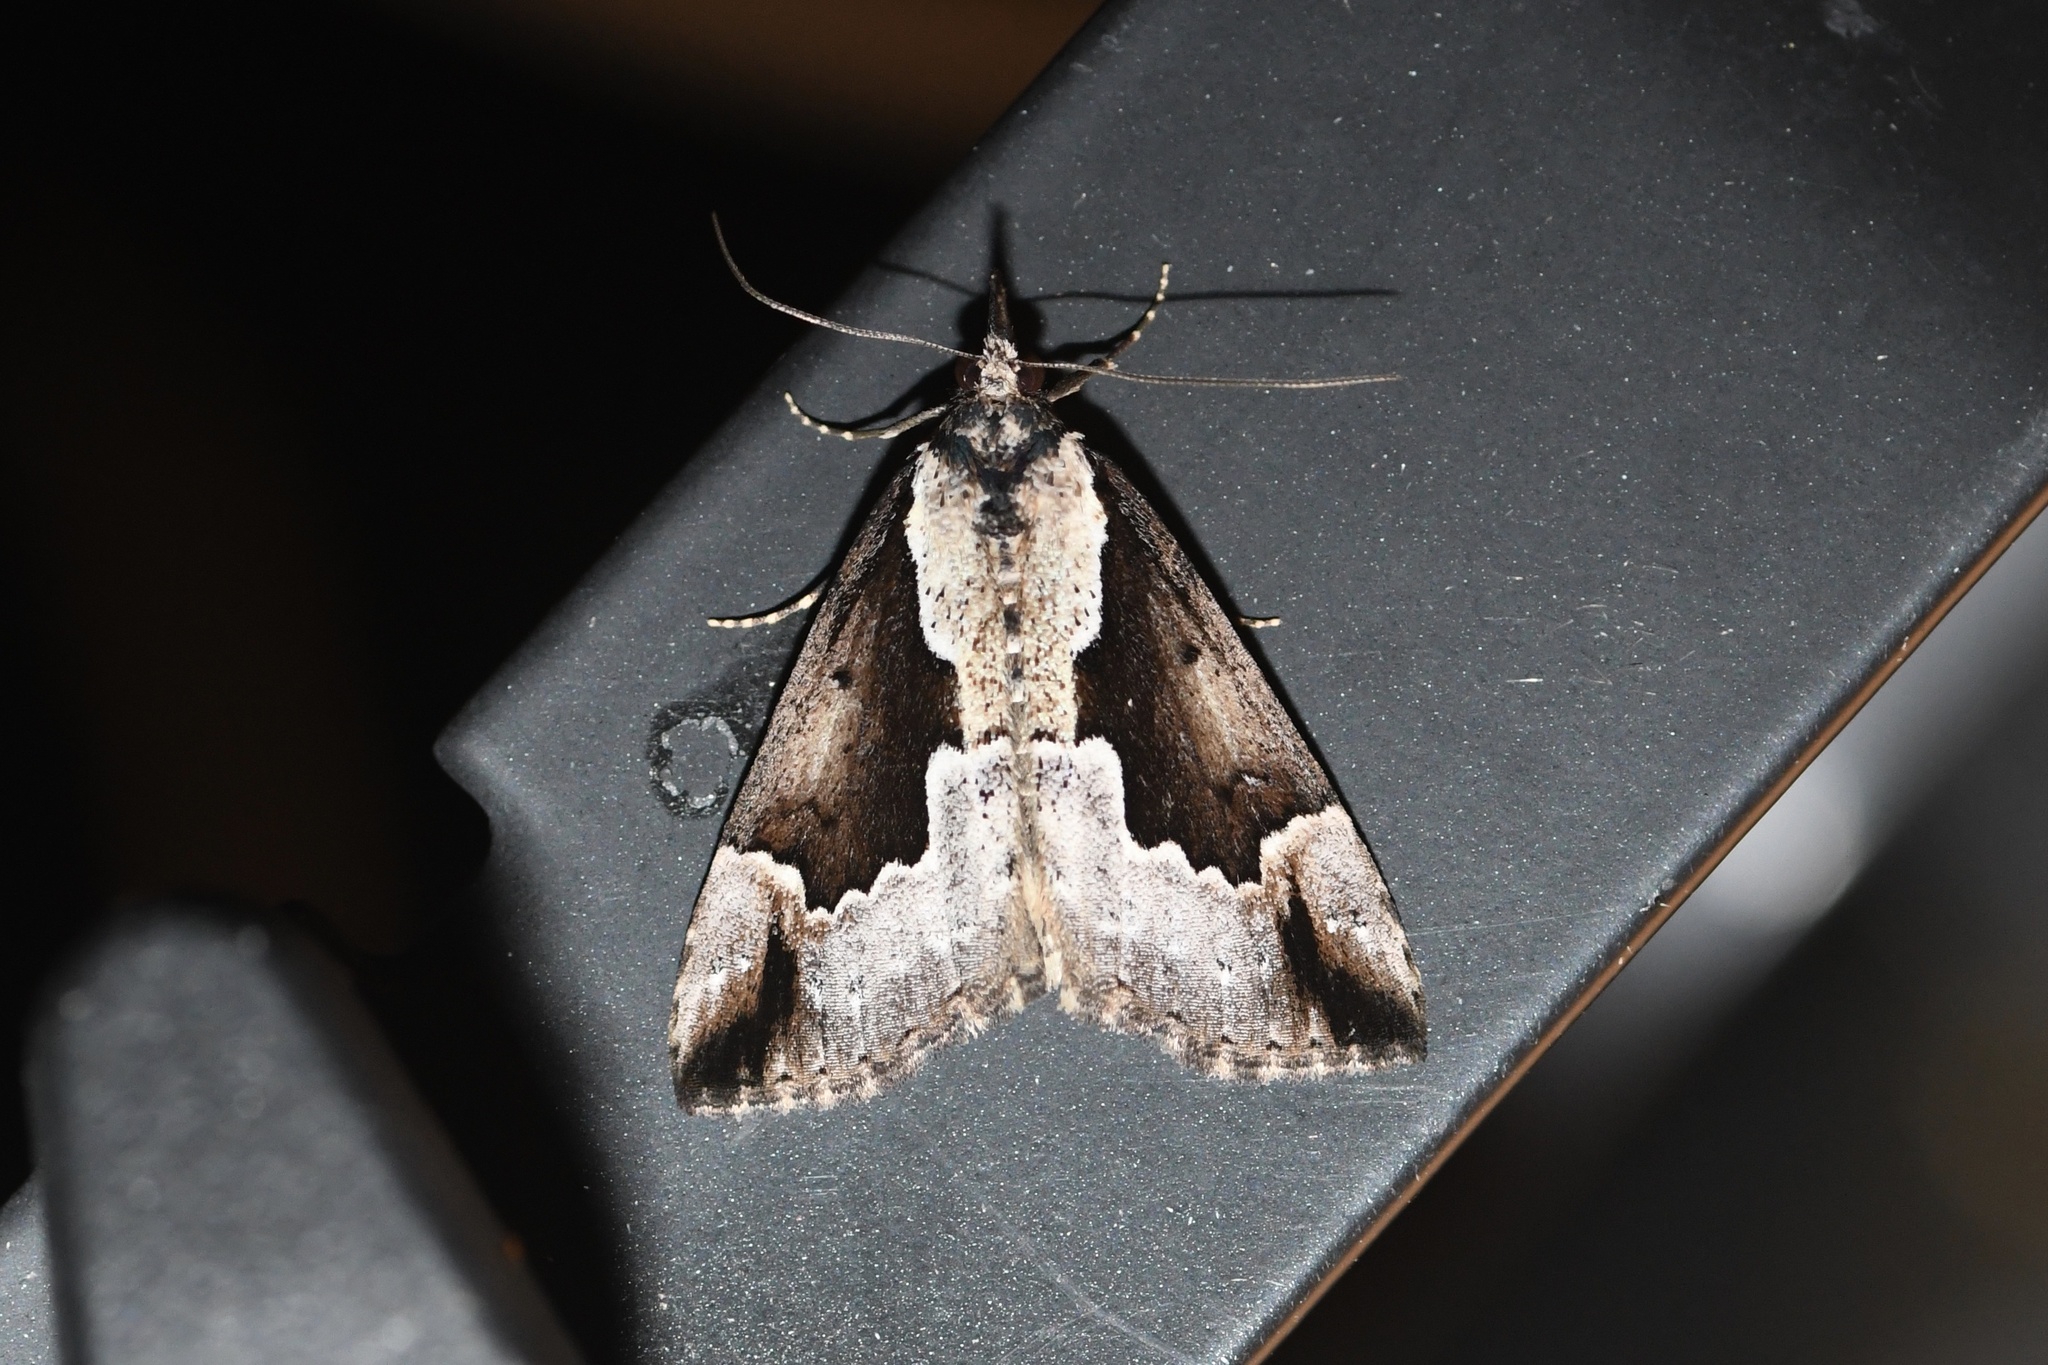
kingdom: Animalia
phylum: Arthropoda
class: Insecta
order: Lepidoptera
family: Erebidae
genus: Hypena
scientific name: Hypena baltimoralis
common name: Baltimore snout
